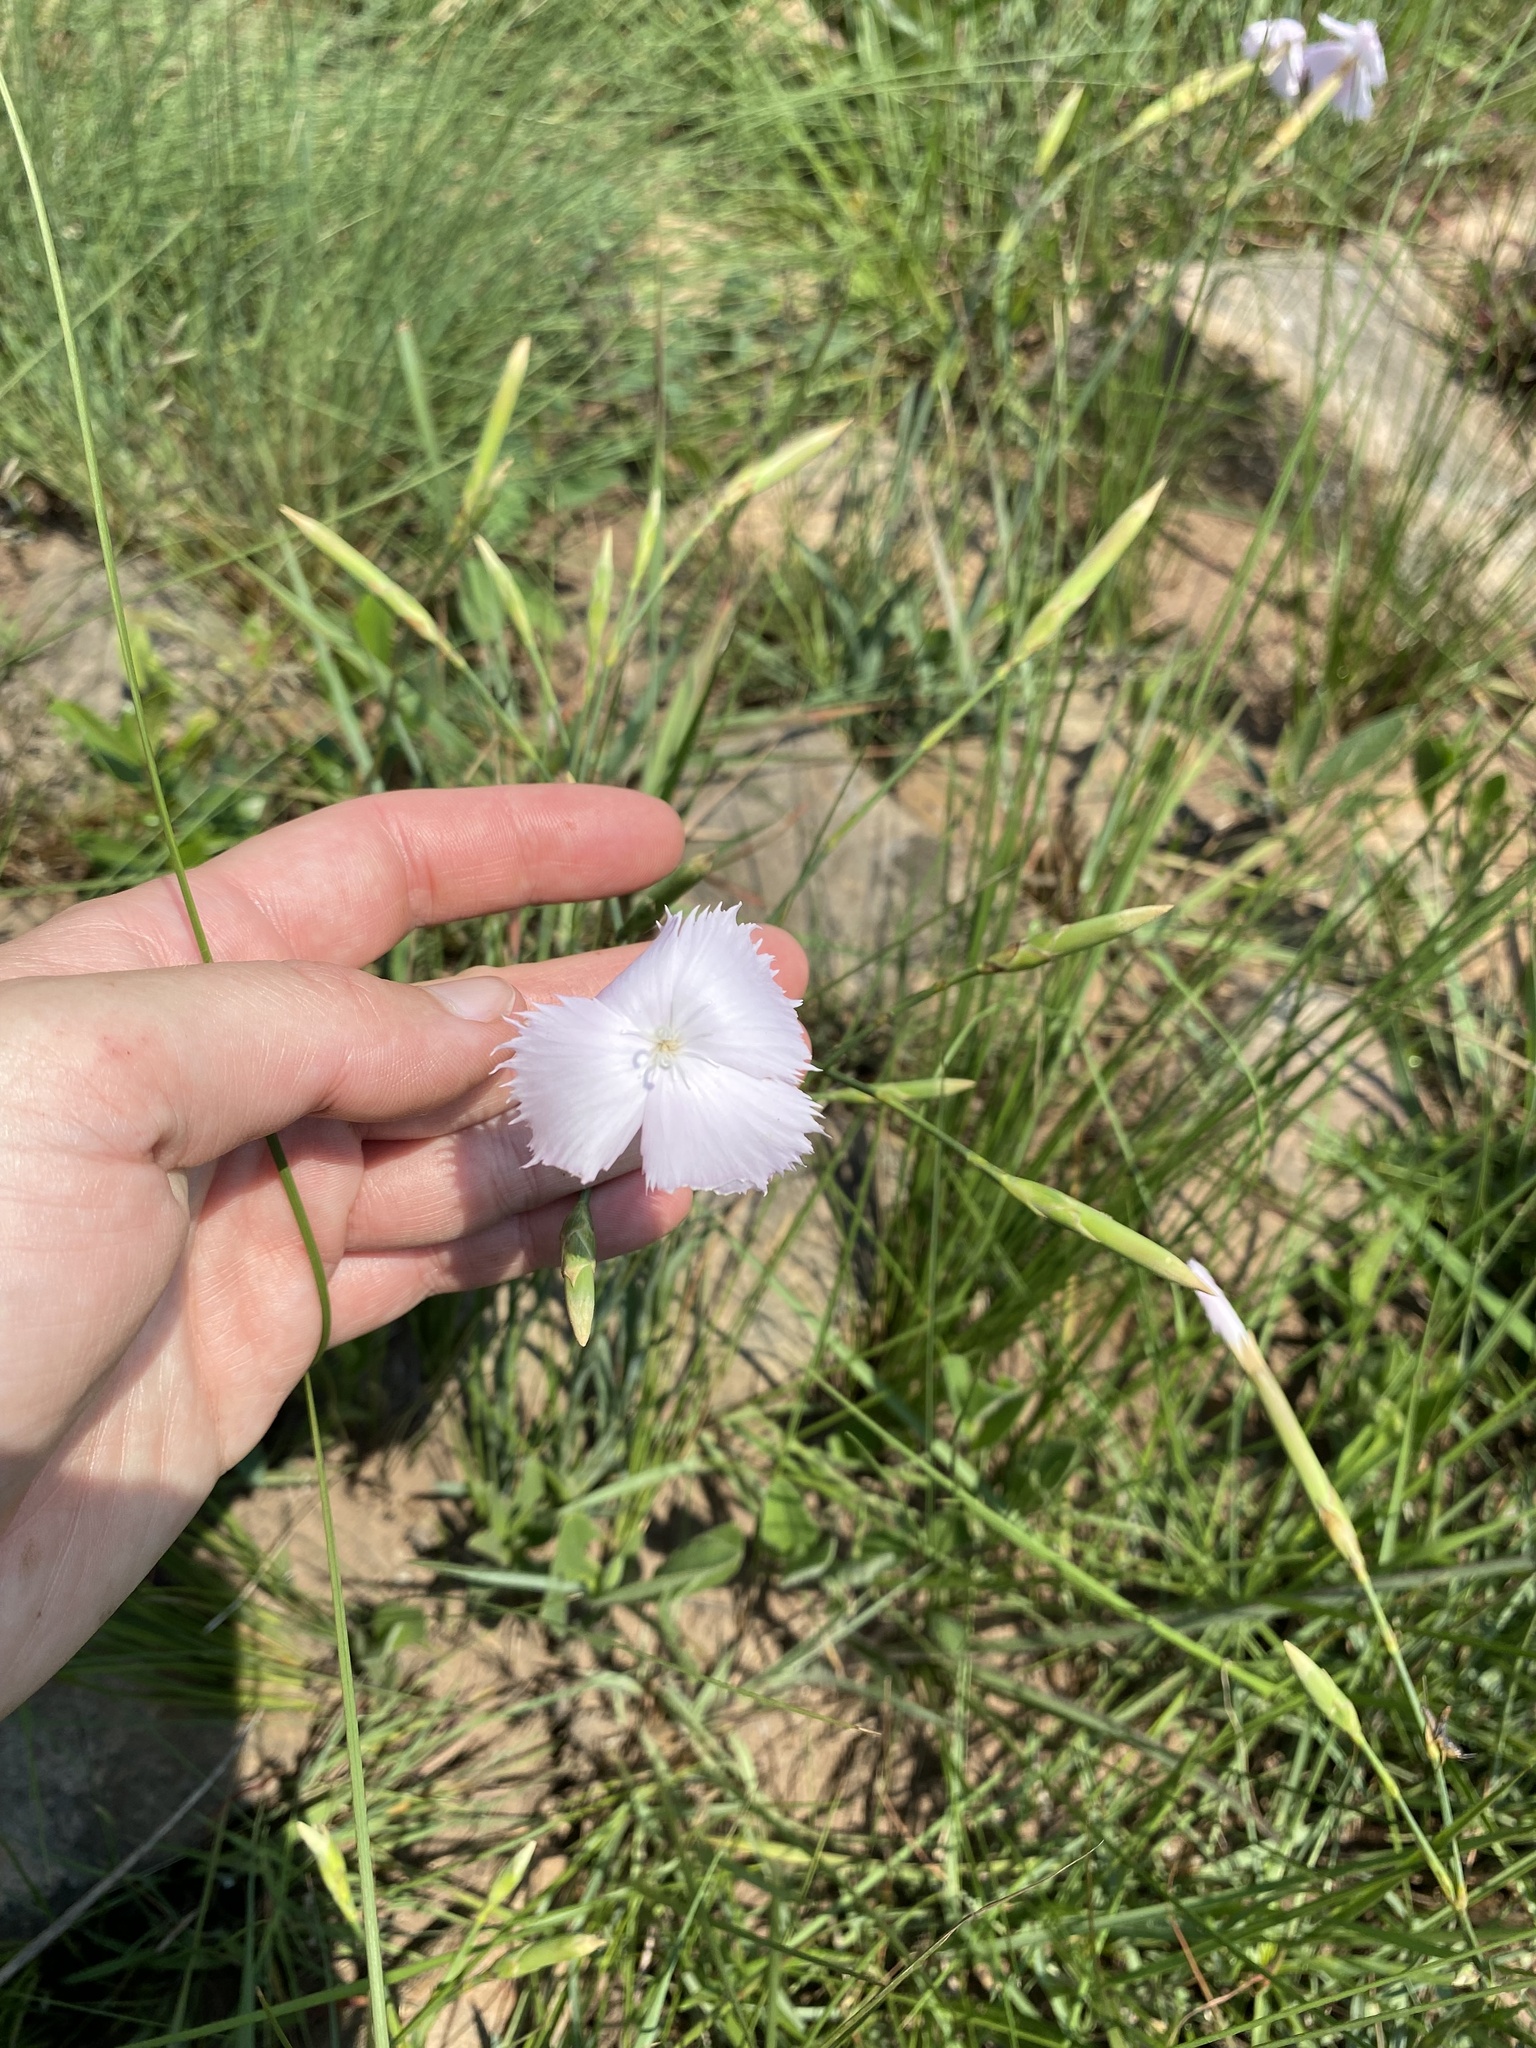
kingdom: Plantae
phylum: Tracheophyta
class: Magnoliopsida
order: Caryophyllales
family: Caryophyllaceae
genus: Dianthus
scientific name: Dianthus zeyheri
